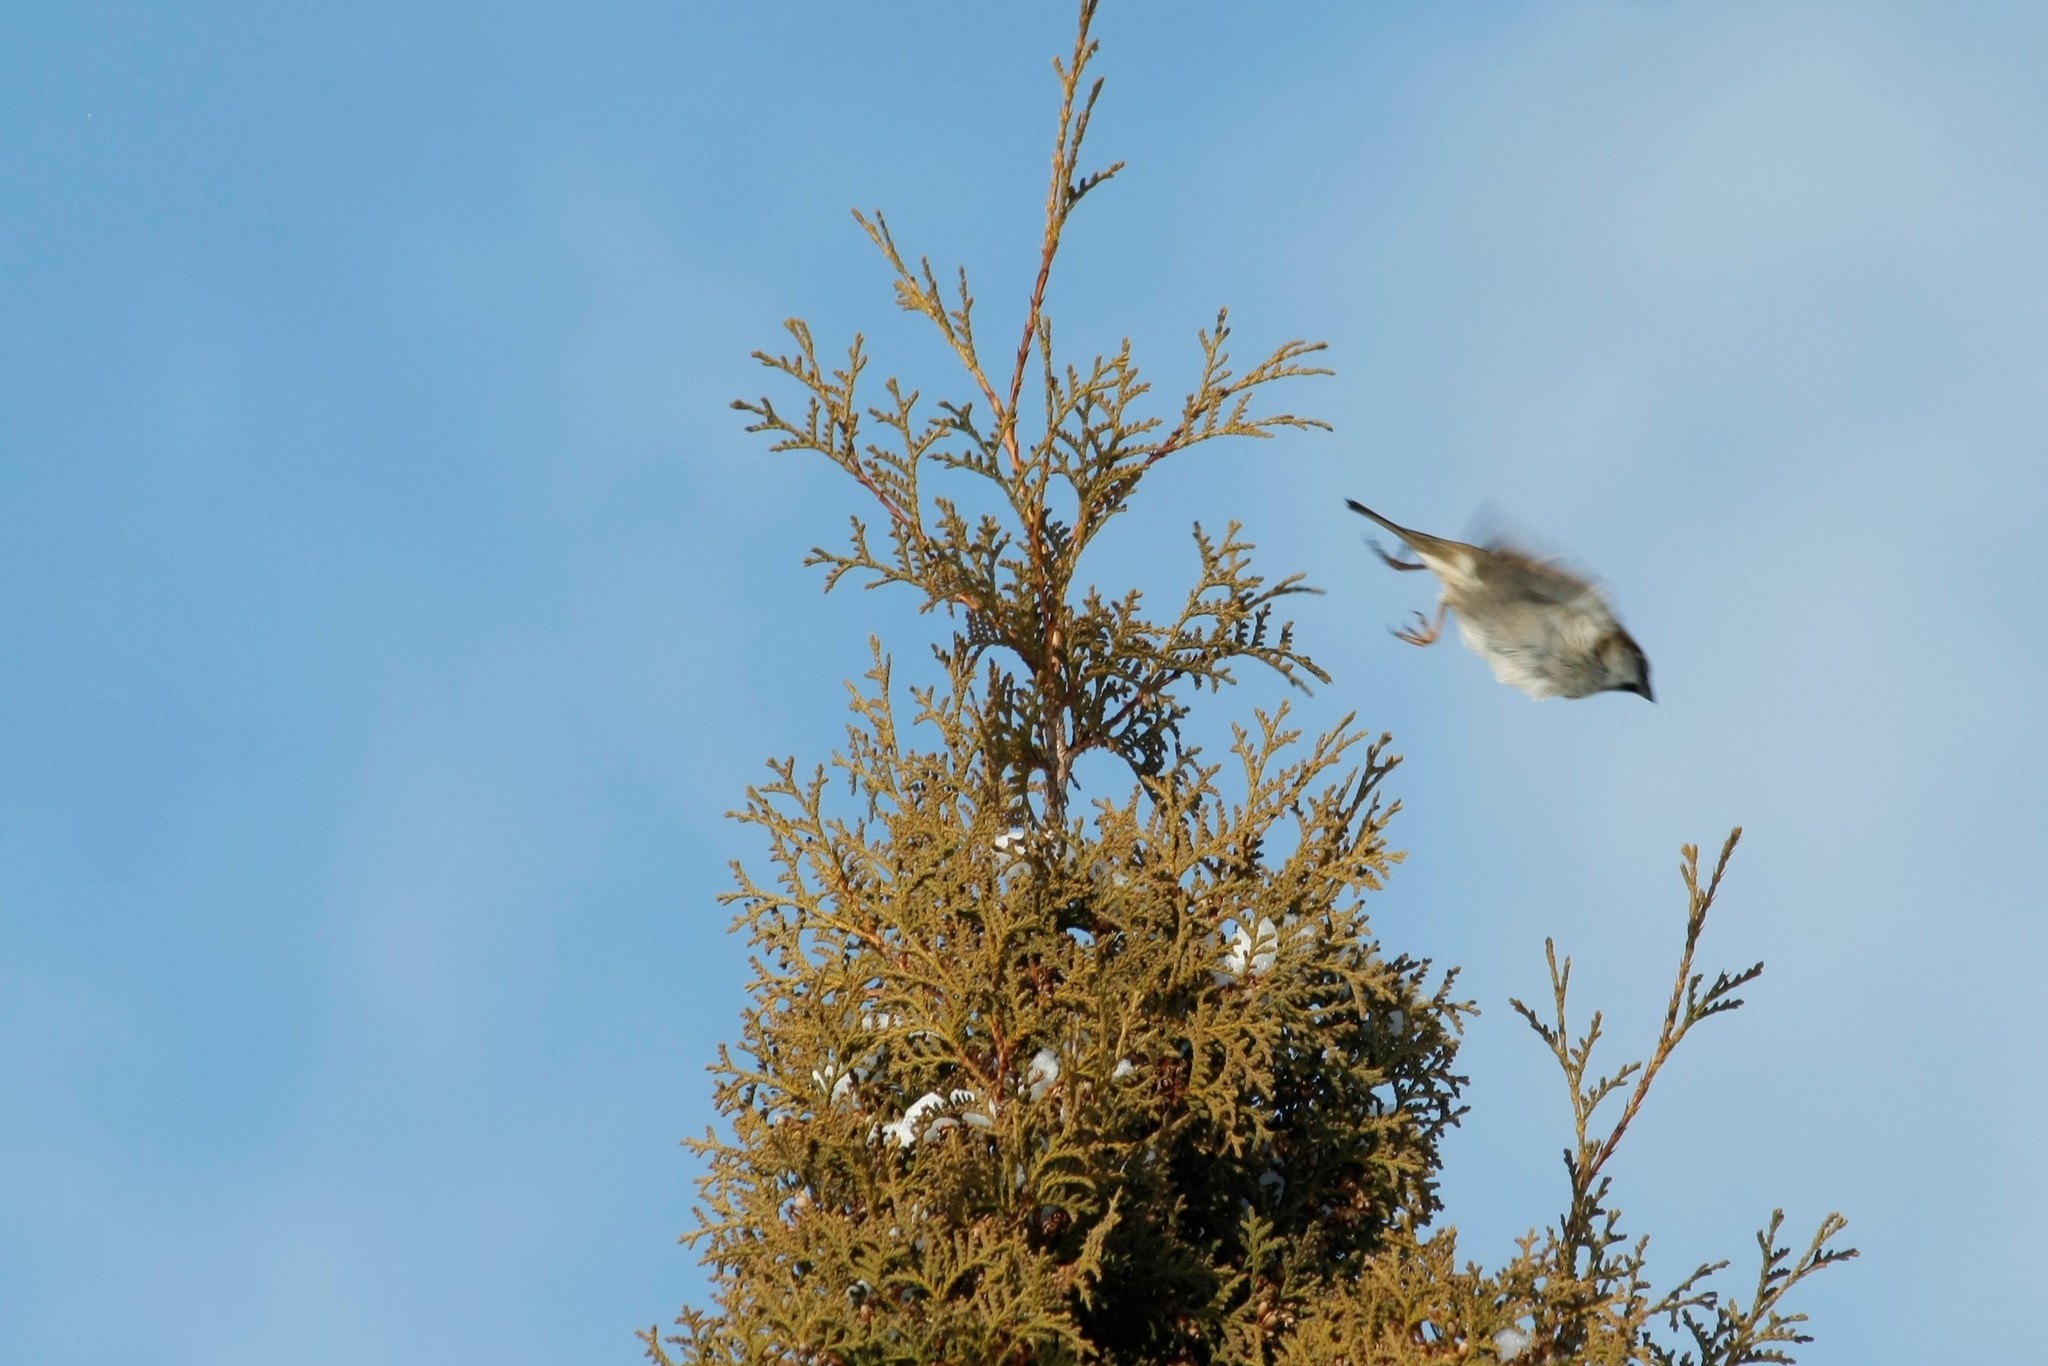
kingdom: Animalia
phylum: Chordata
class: Aves
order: Passeriformes
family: Passeridae
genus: Passer
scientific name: Passer domesticus
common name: House sparrow
